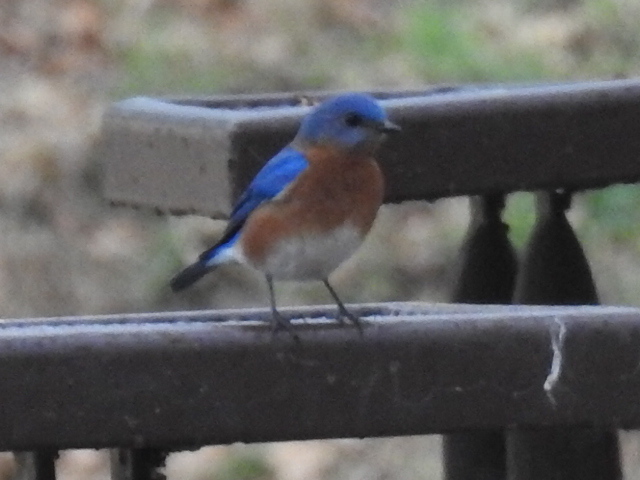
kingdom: Animalia
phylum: Chordata
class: Aves
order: Passeriformes
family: Turdidae
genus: Sialia
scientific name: Sialia sialis
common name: Eastern bluebird
